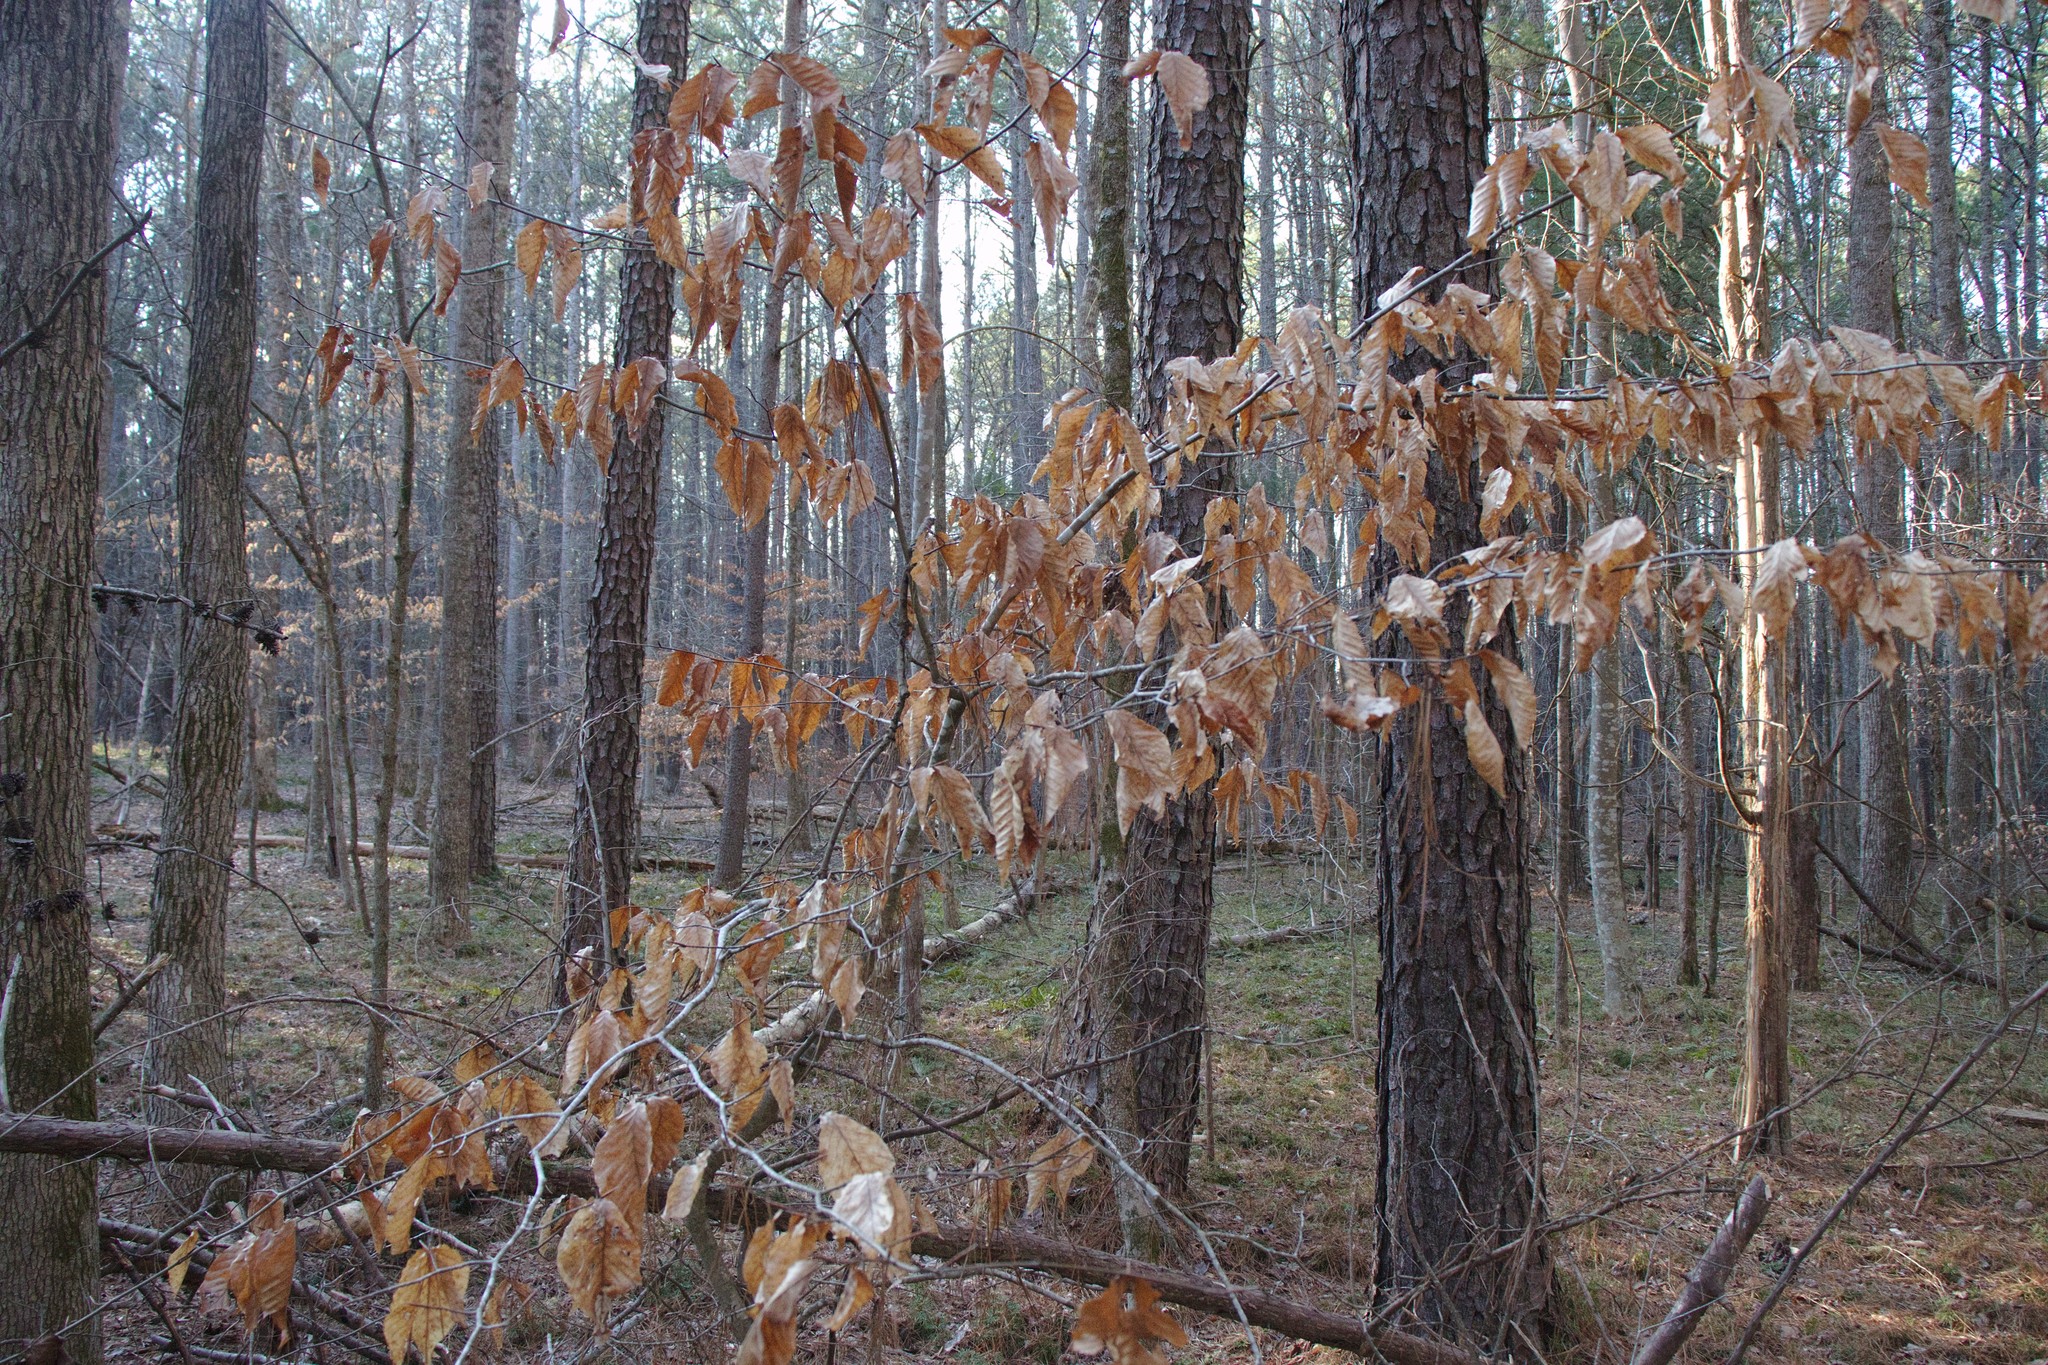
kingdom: Plantae
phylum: Tracheophyta
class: Magnoliopsida
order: Fagales
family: Fagaceae
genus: Fagus
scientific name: Fagus grandifolia
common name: American beech
